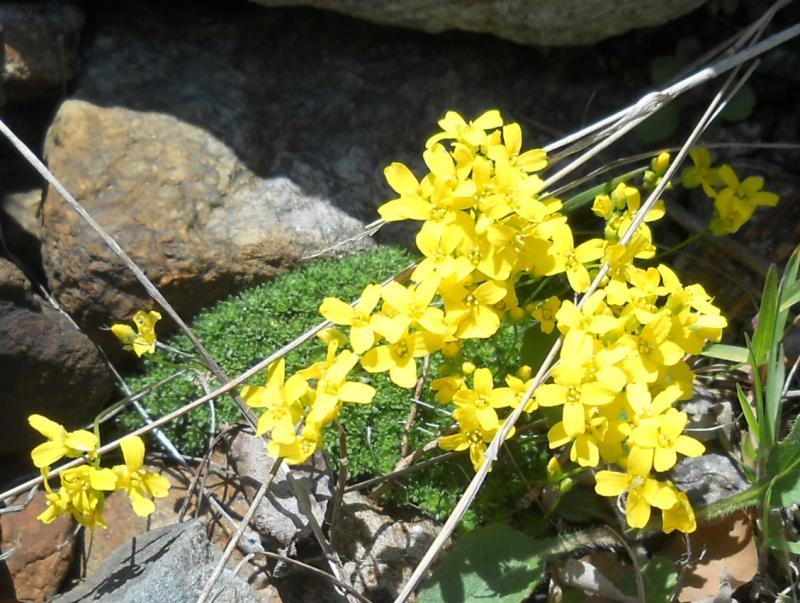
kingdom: Plantae
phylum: Tracheophyta
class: Magnoliopsida
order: Brassicales
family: Brassicaceae
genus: Draba
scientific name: Draba rigida
